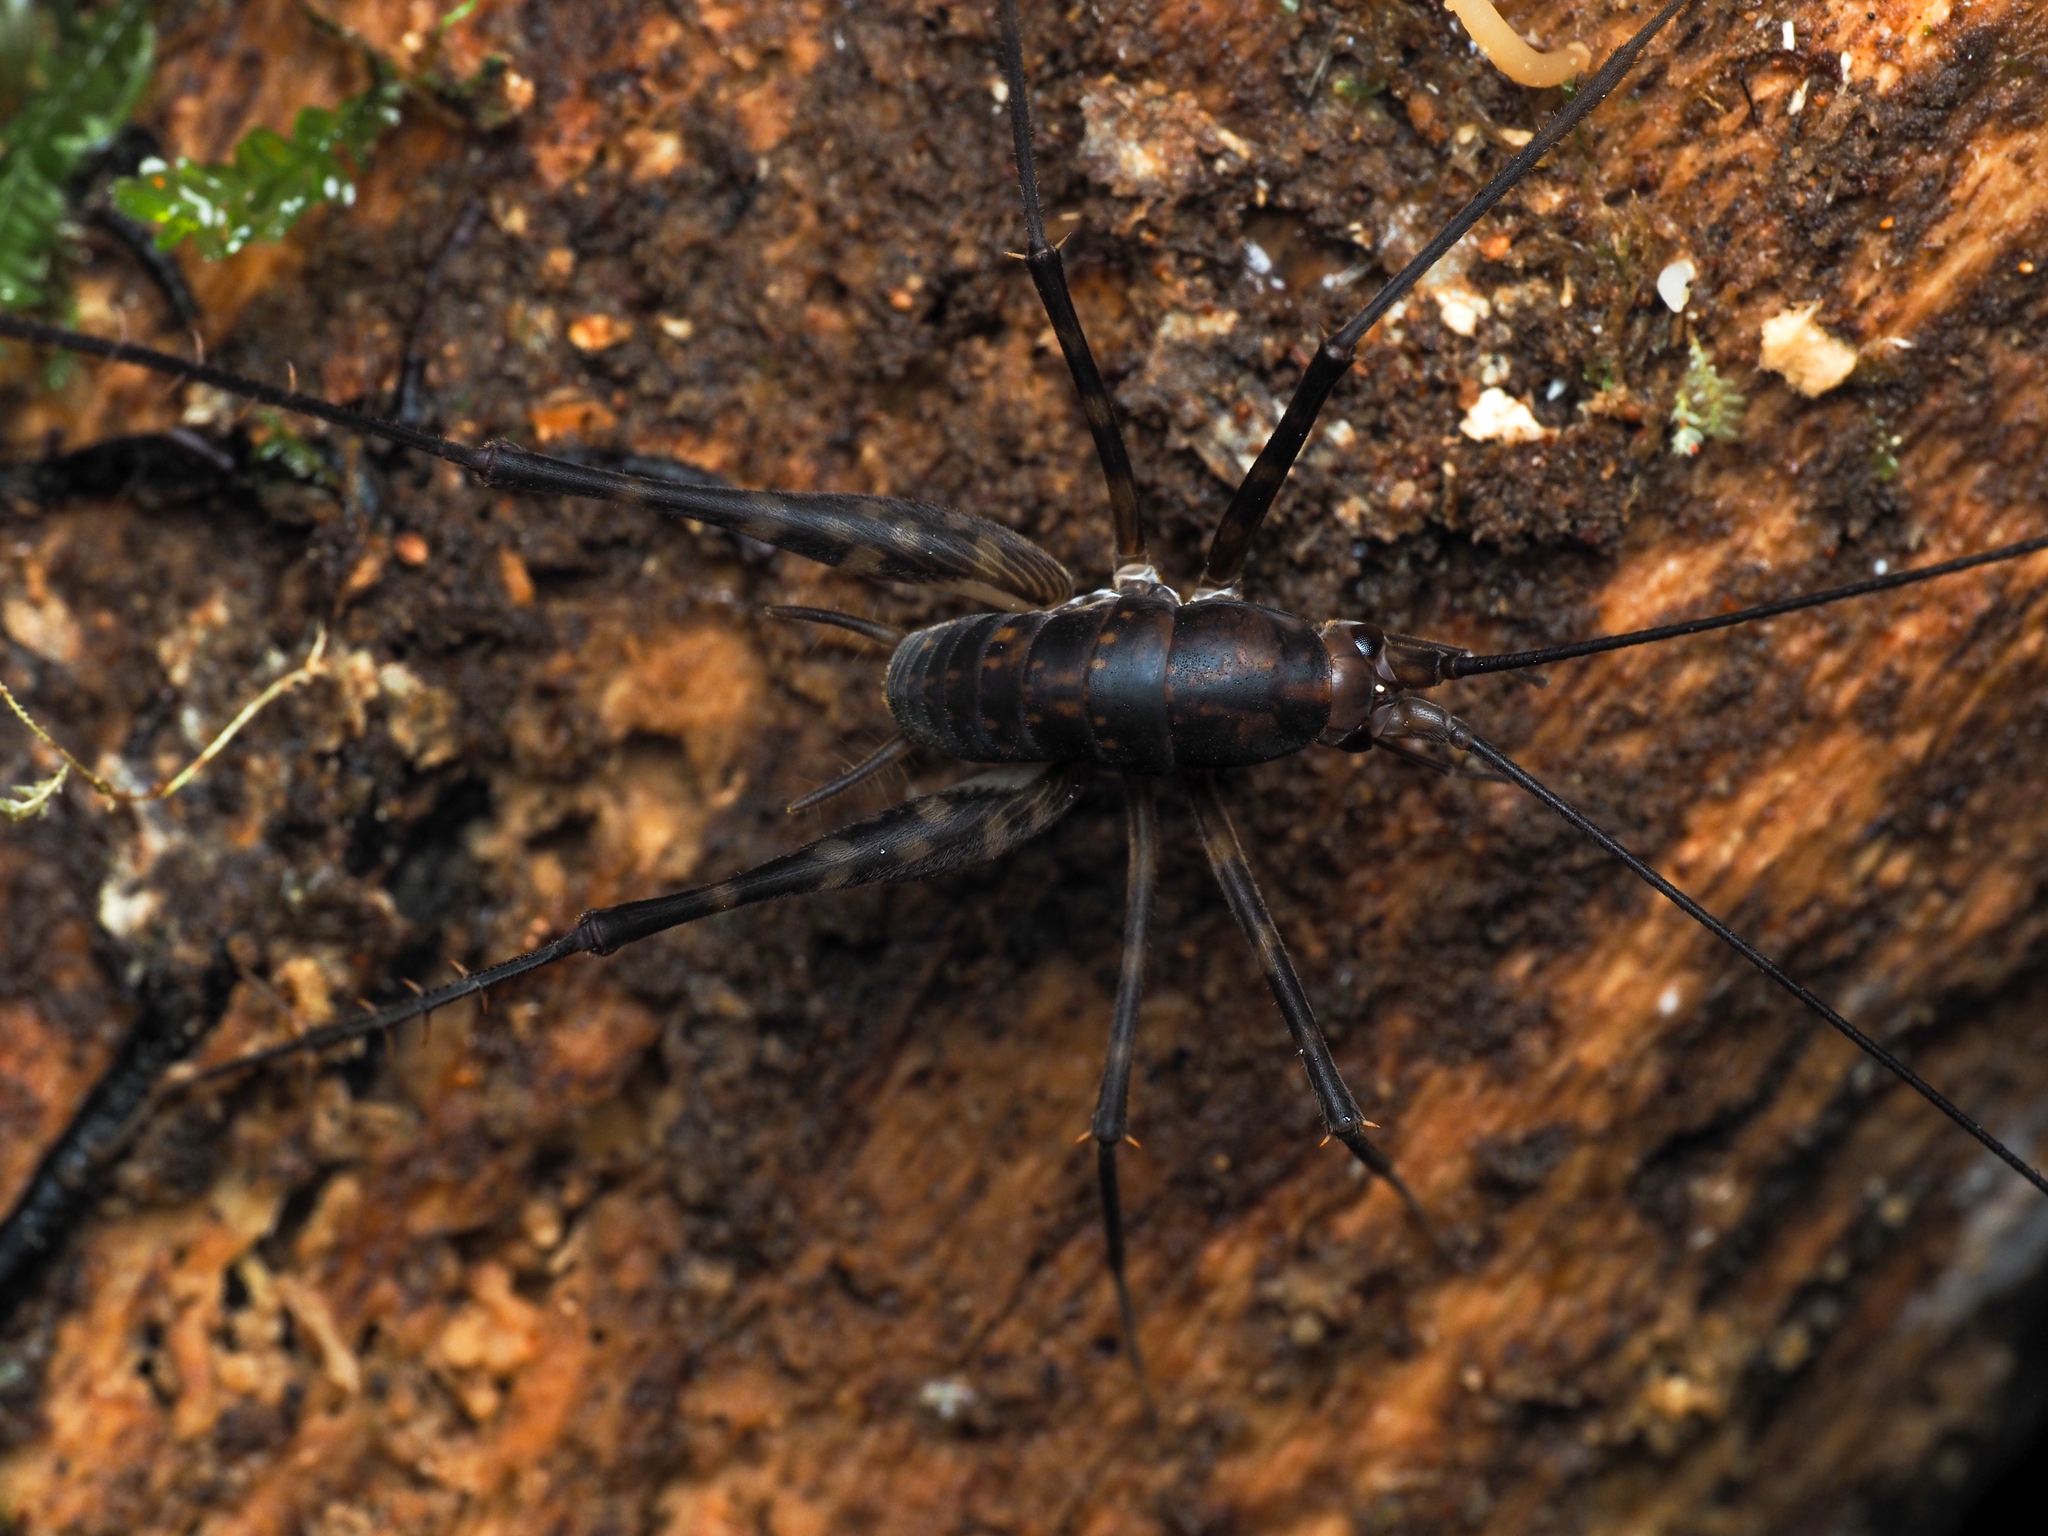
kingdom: Animalia
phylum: Arthropoda
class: Insecta
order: Orthoptera
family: Rhaphidophoridae
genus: Miotopus
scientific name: Miotopus richardsae
